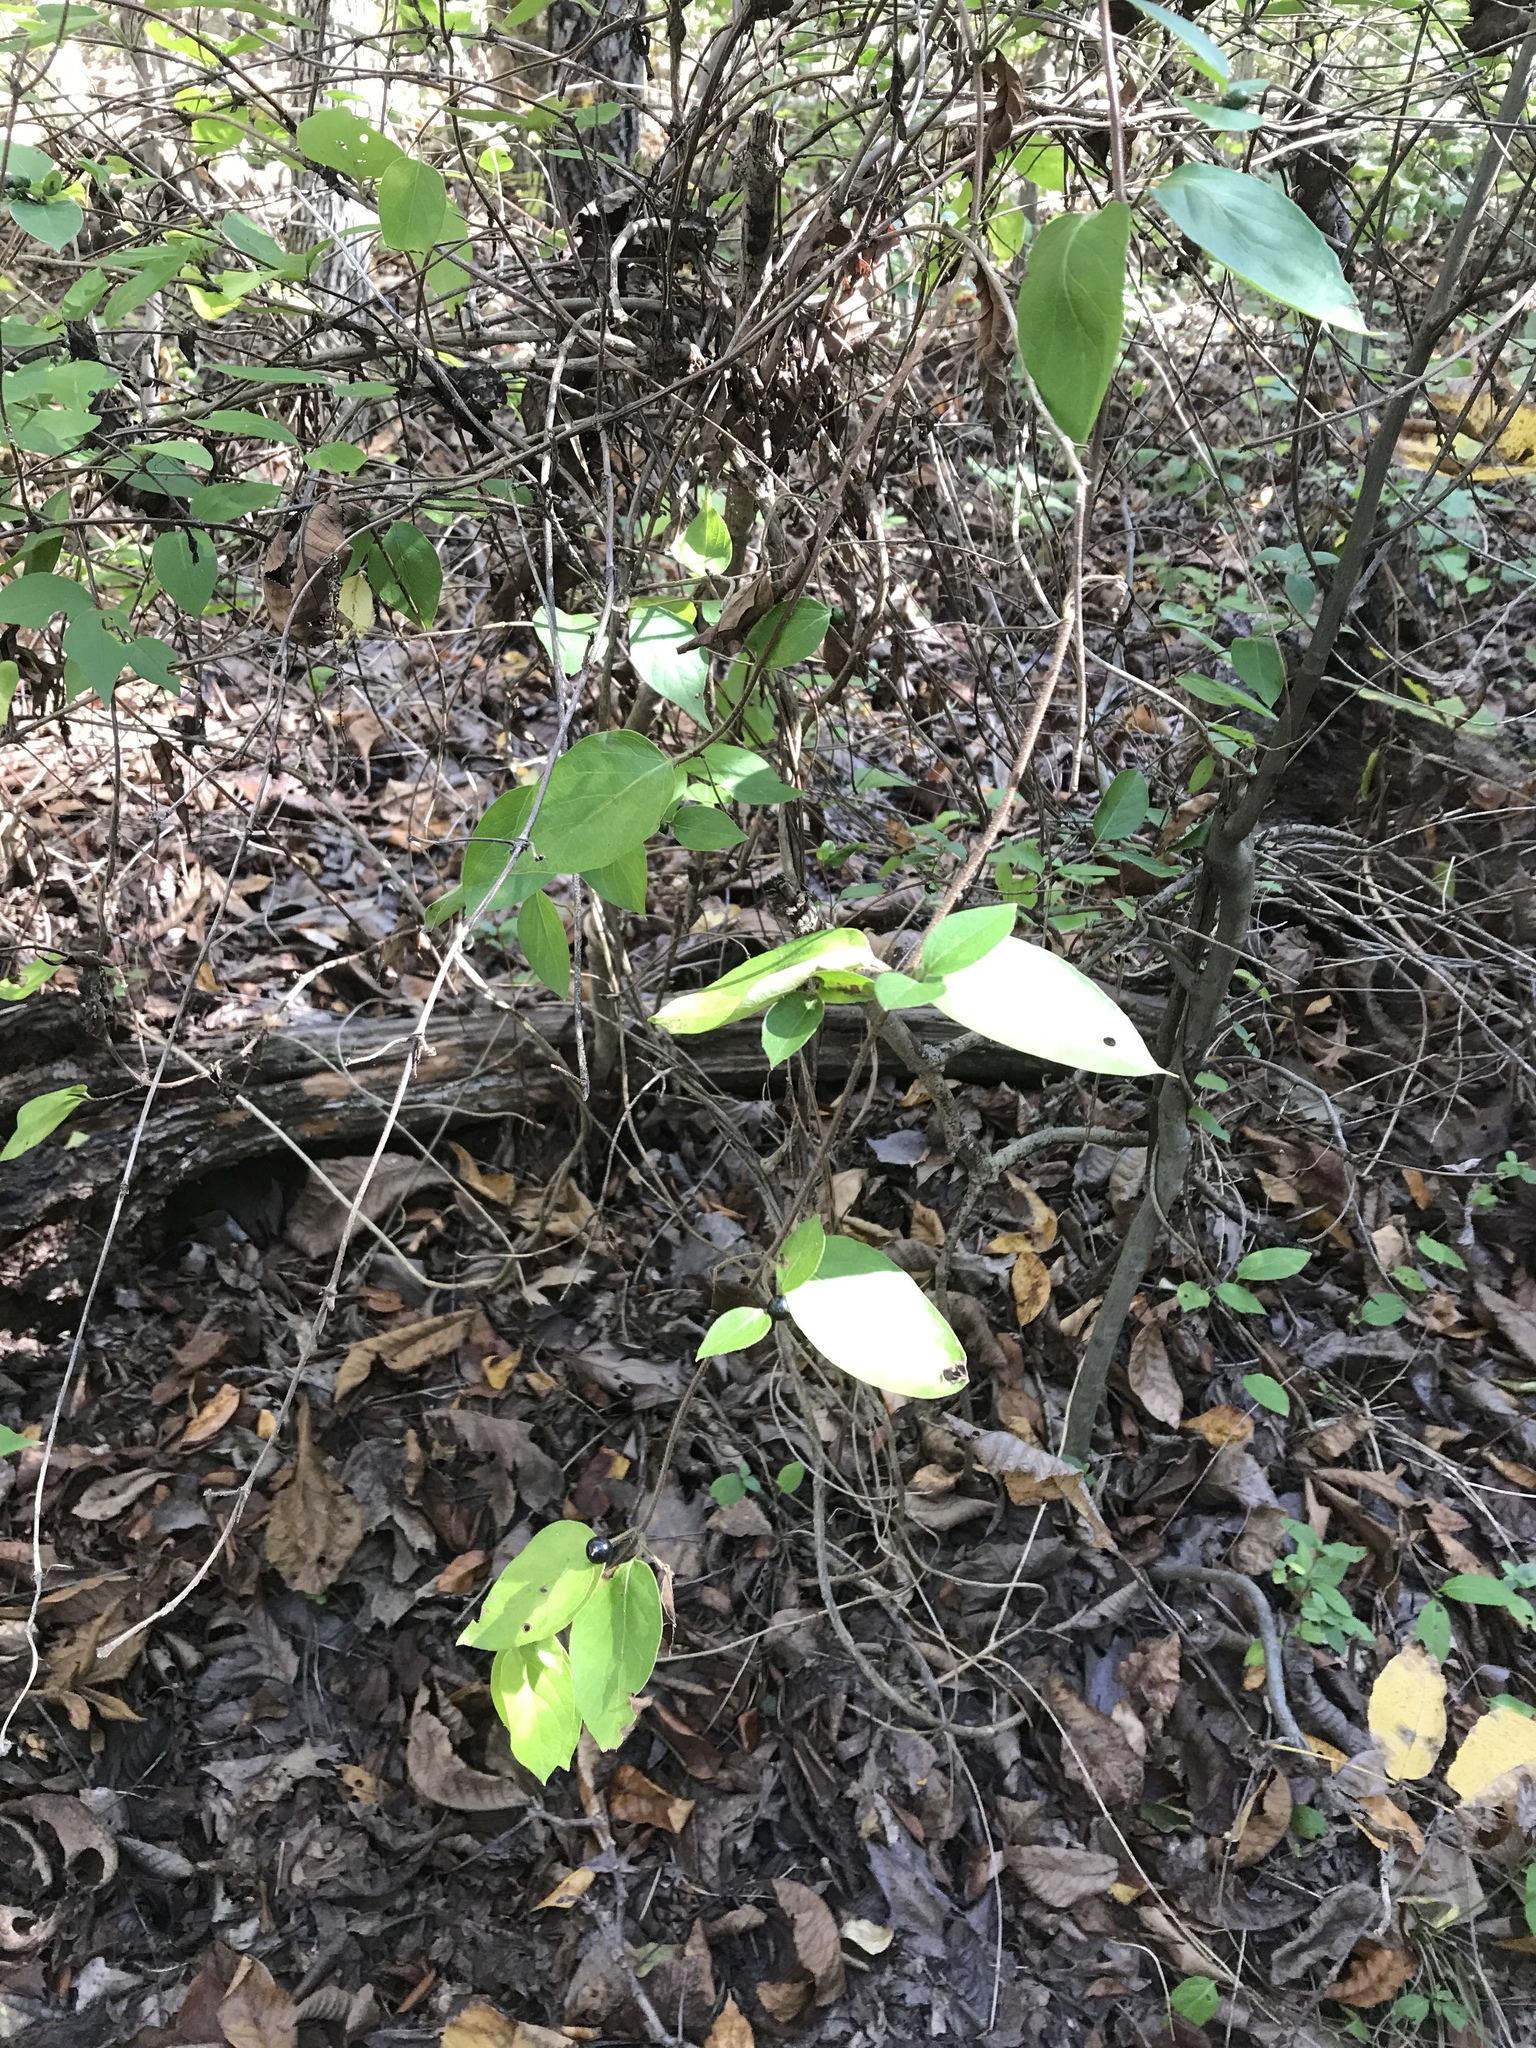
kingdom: Plantae
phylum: Tracheophyta
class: Magnoliopsida
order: Dipsacales
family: Caprifoliaceae
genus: Lonicera
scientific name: Lonicera japonica
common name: Japanese honeysuckle
